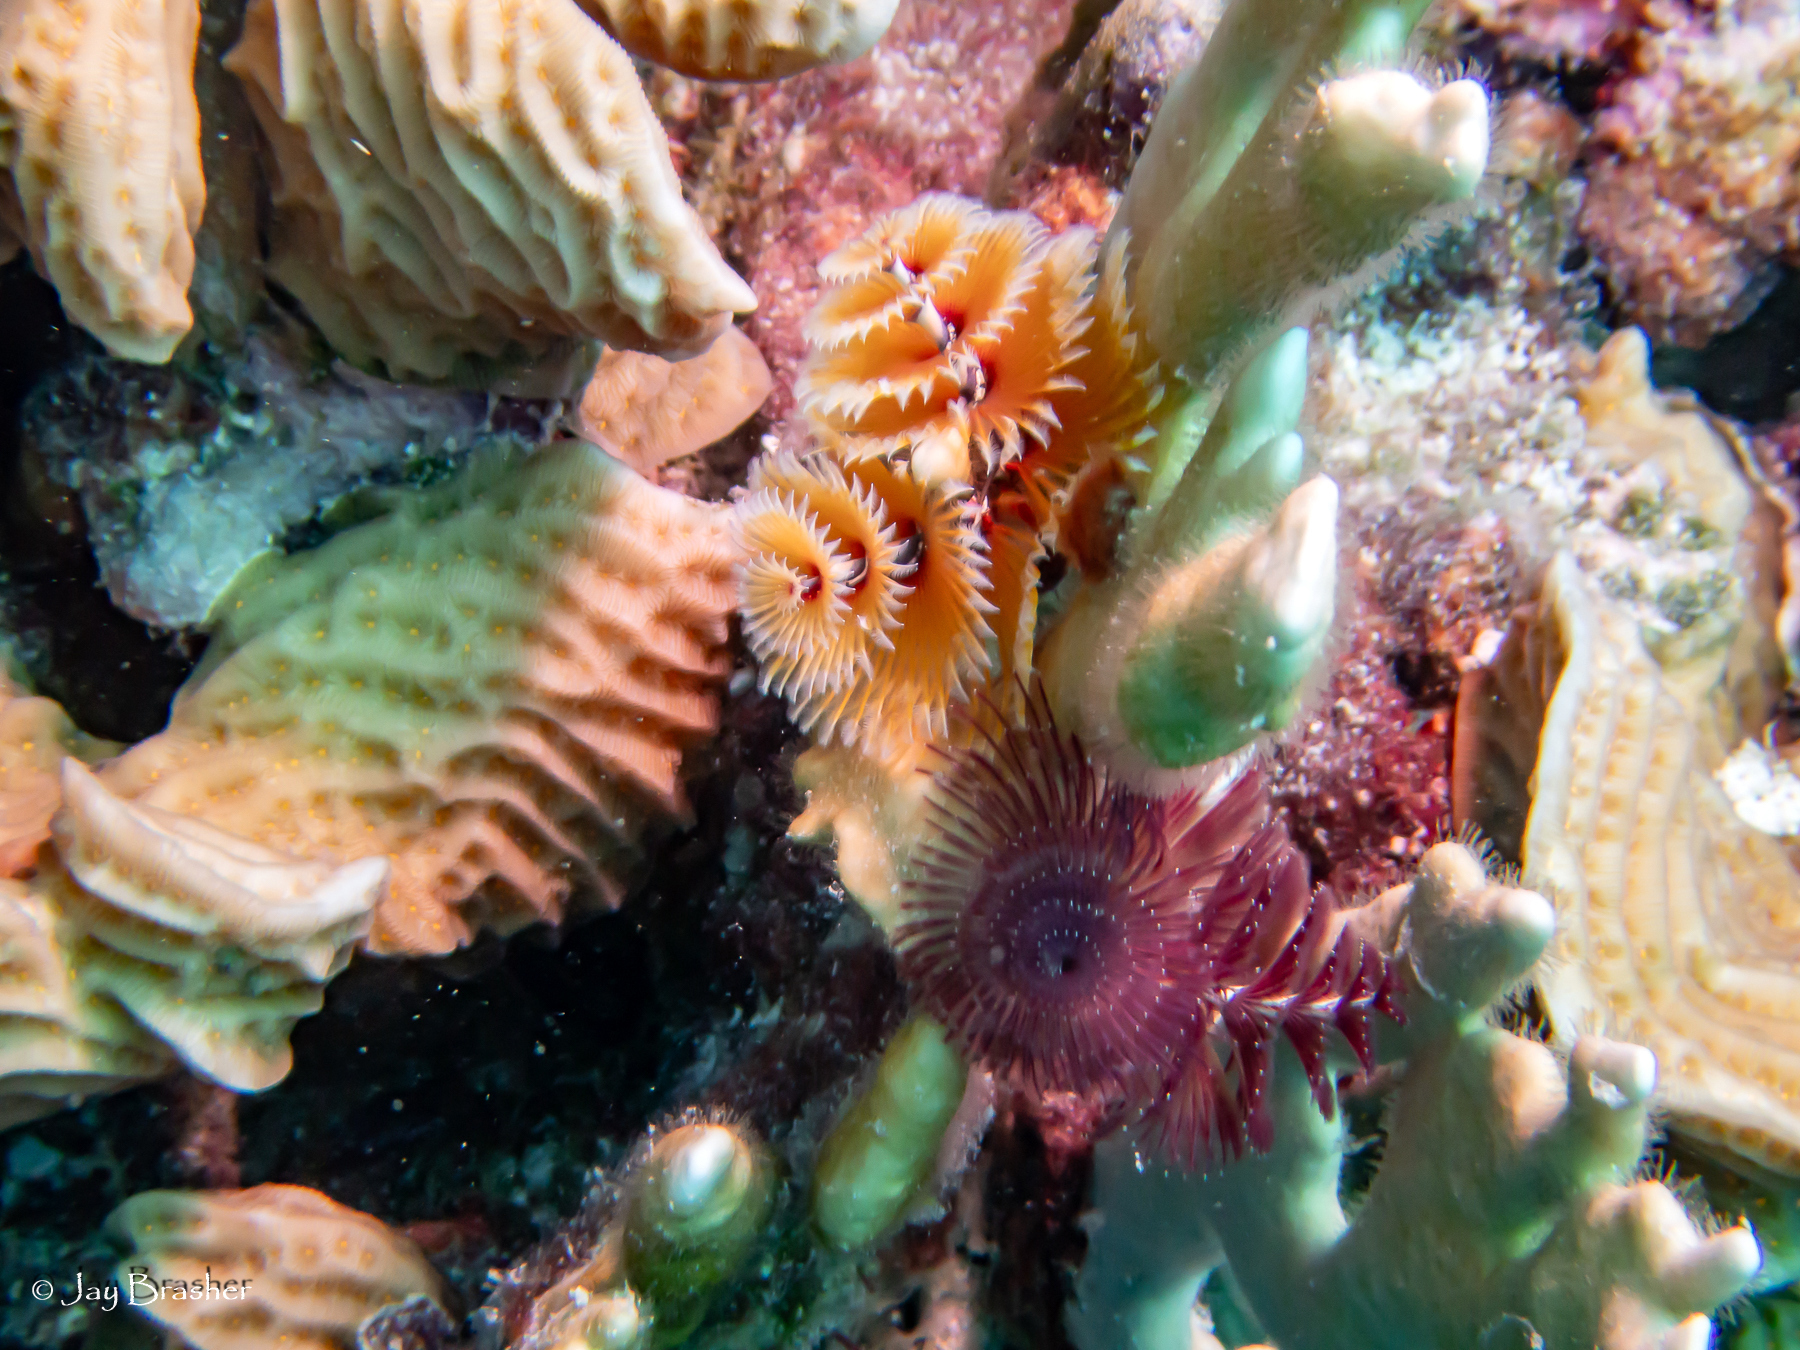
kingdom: Animalia
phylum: Annelida
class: Polychaeta
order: Sabellida
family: Serpulidae
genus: Spirobranchus
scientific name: Spirobranchus giganteus
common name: Christmas tree worm
